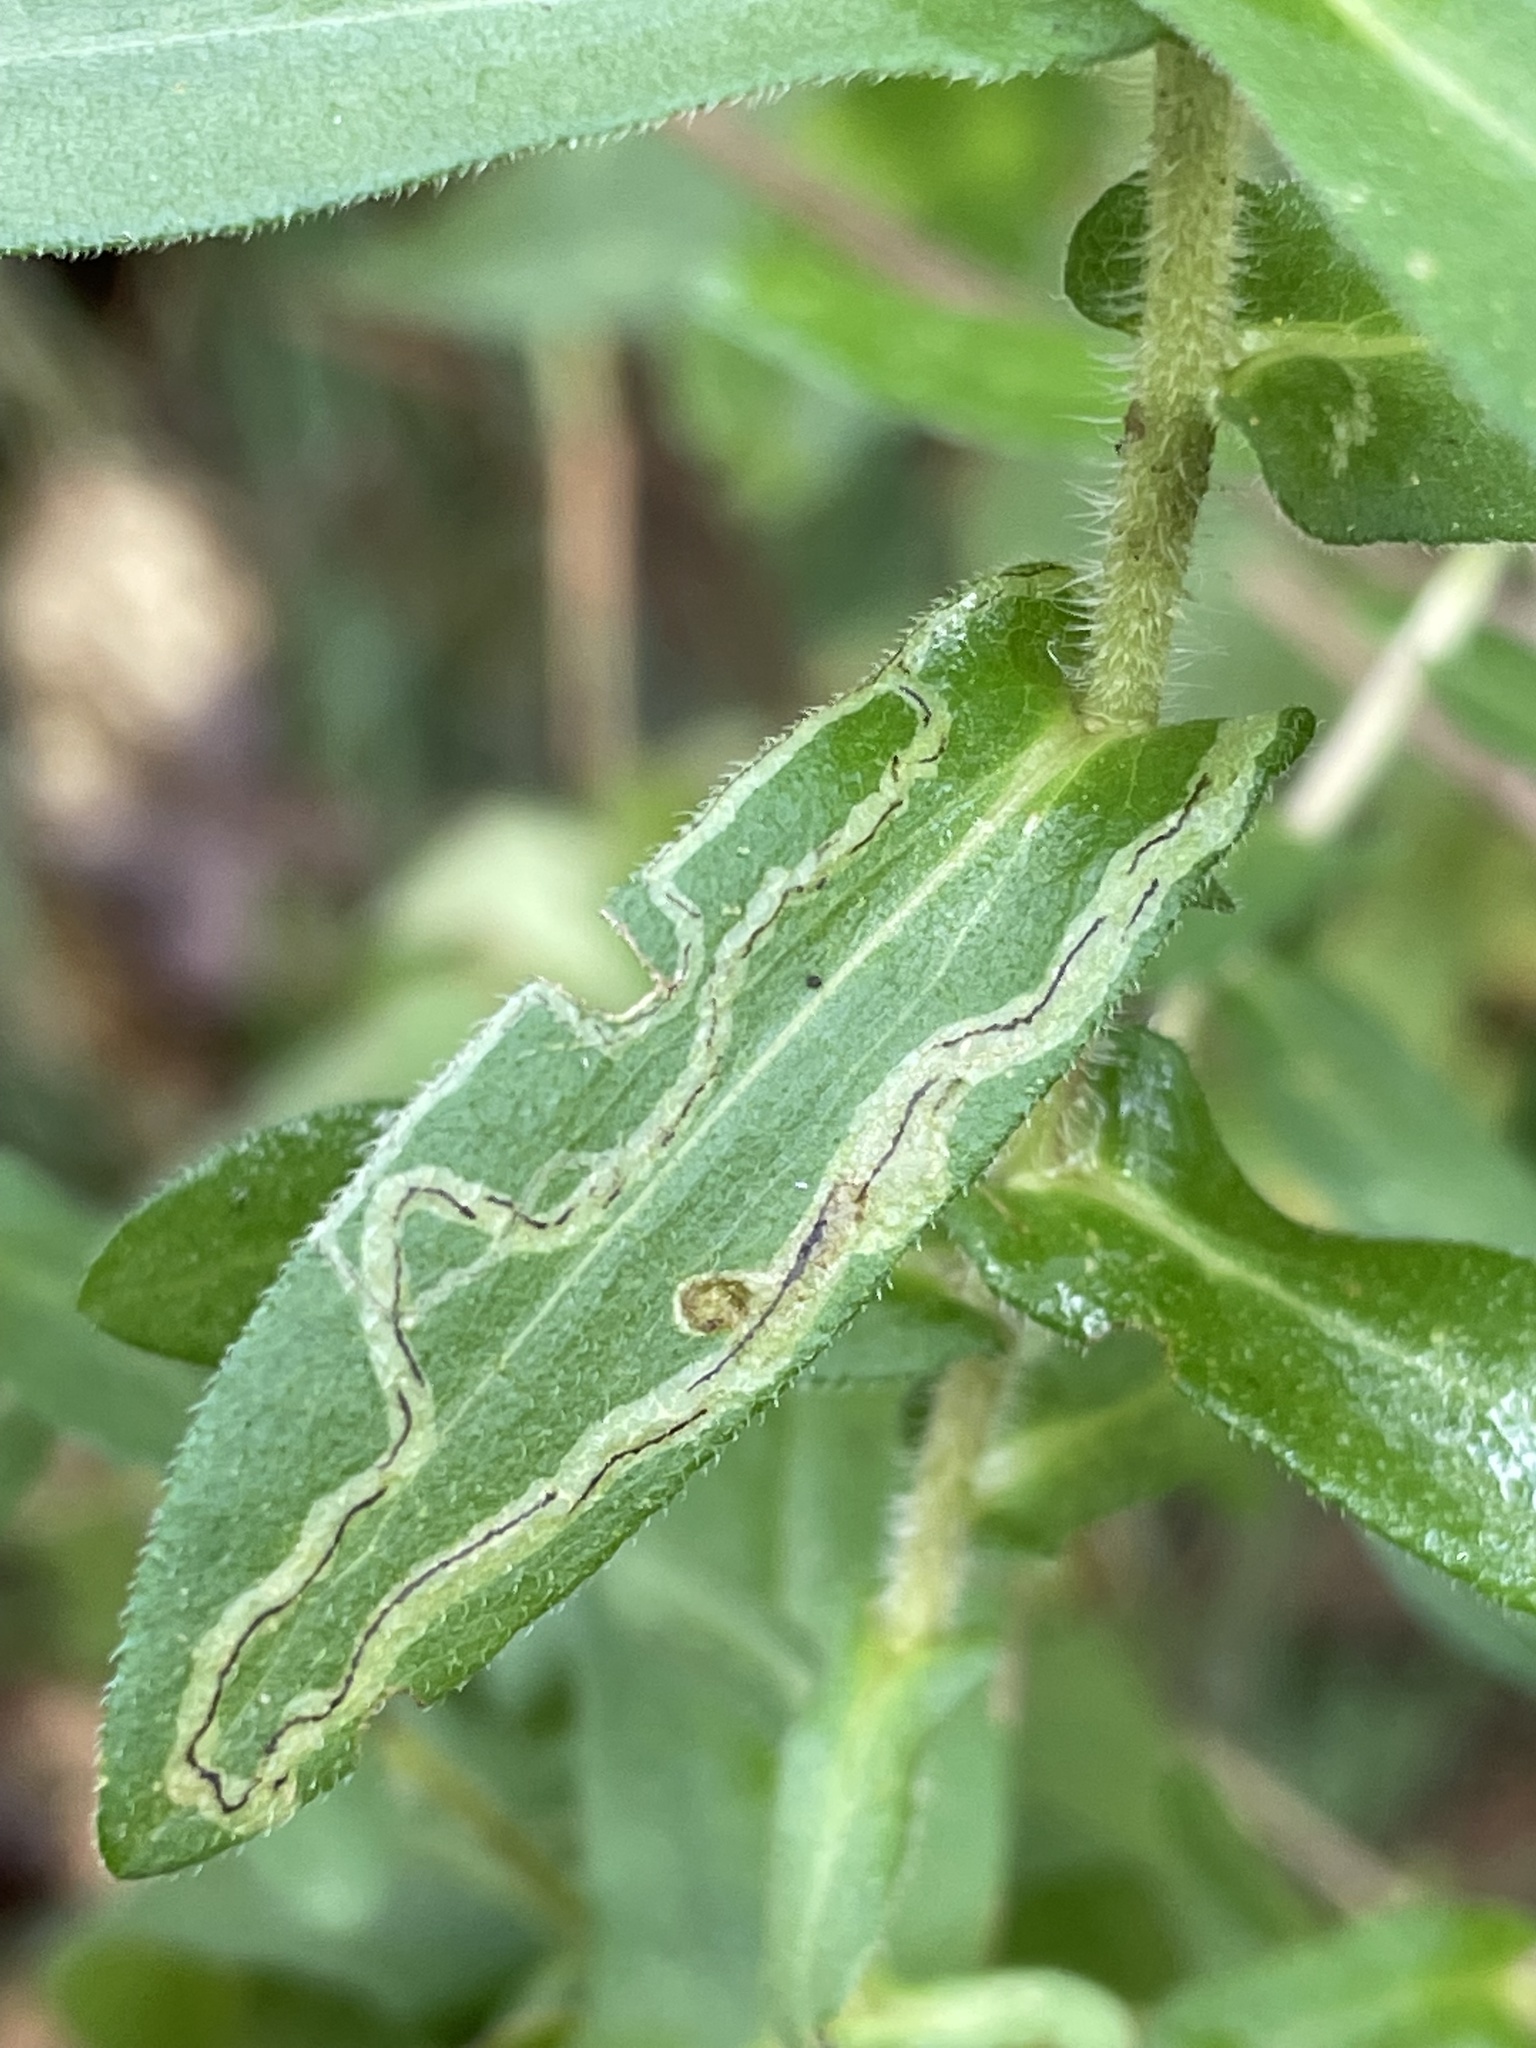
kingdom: Plantae
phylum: Tracheophyta
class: Magnoliopsida
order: Asterales
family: Asteraceae
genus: Symphyotrichum
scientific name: Symphyotrichum novae-angliae
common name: Michaelmas daisy
